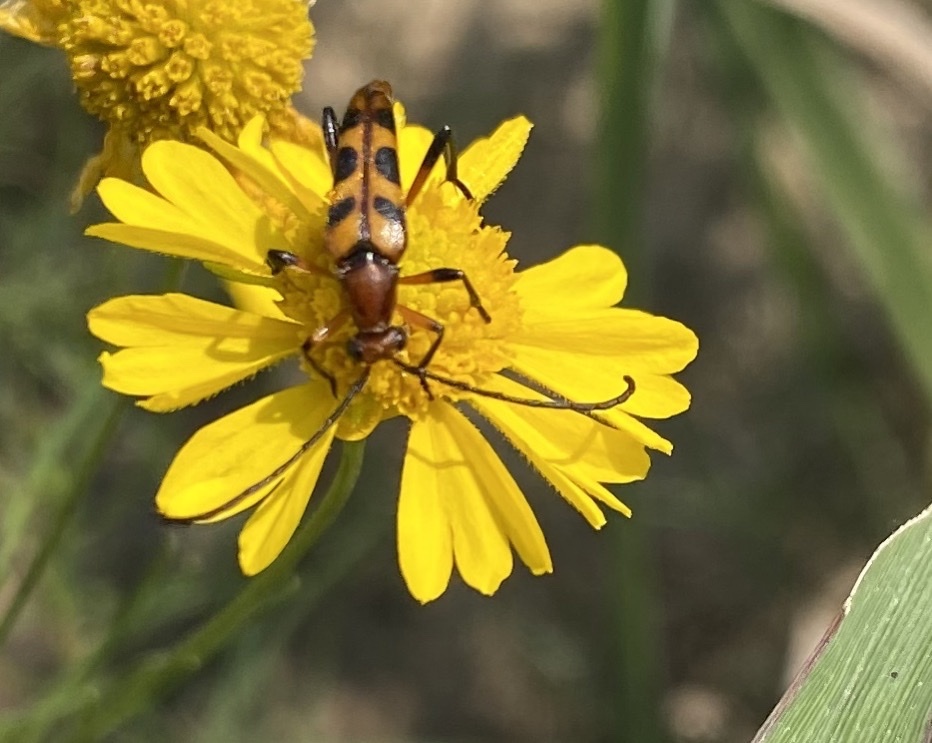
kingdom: Animalia
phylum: Arthropoda
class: Insecta
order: Coleoptera
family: Cerambycidae
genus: Strangalia
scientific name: Strangalia sexnotata
